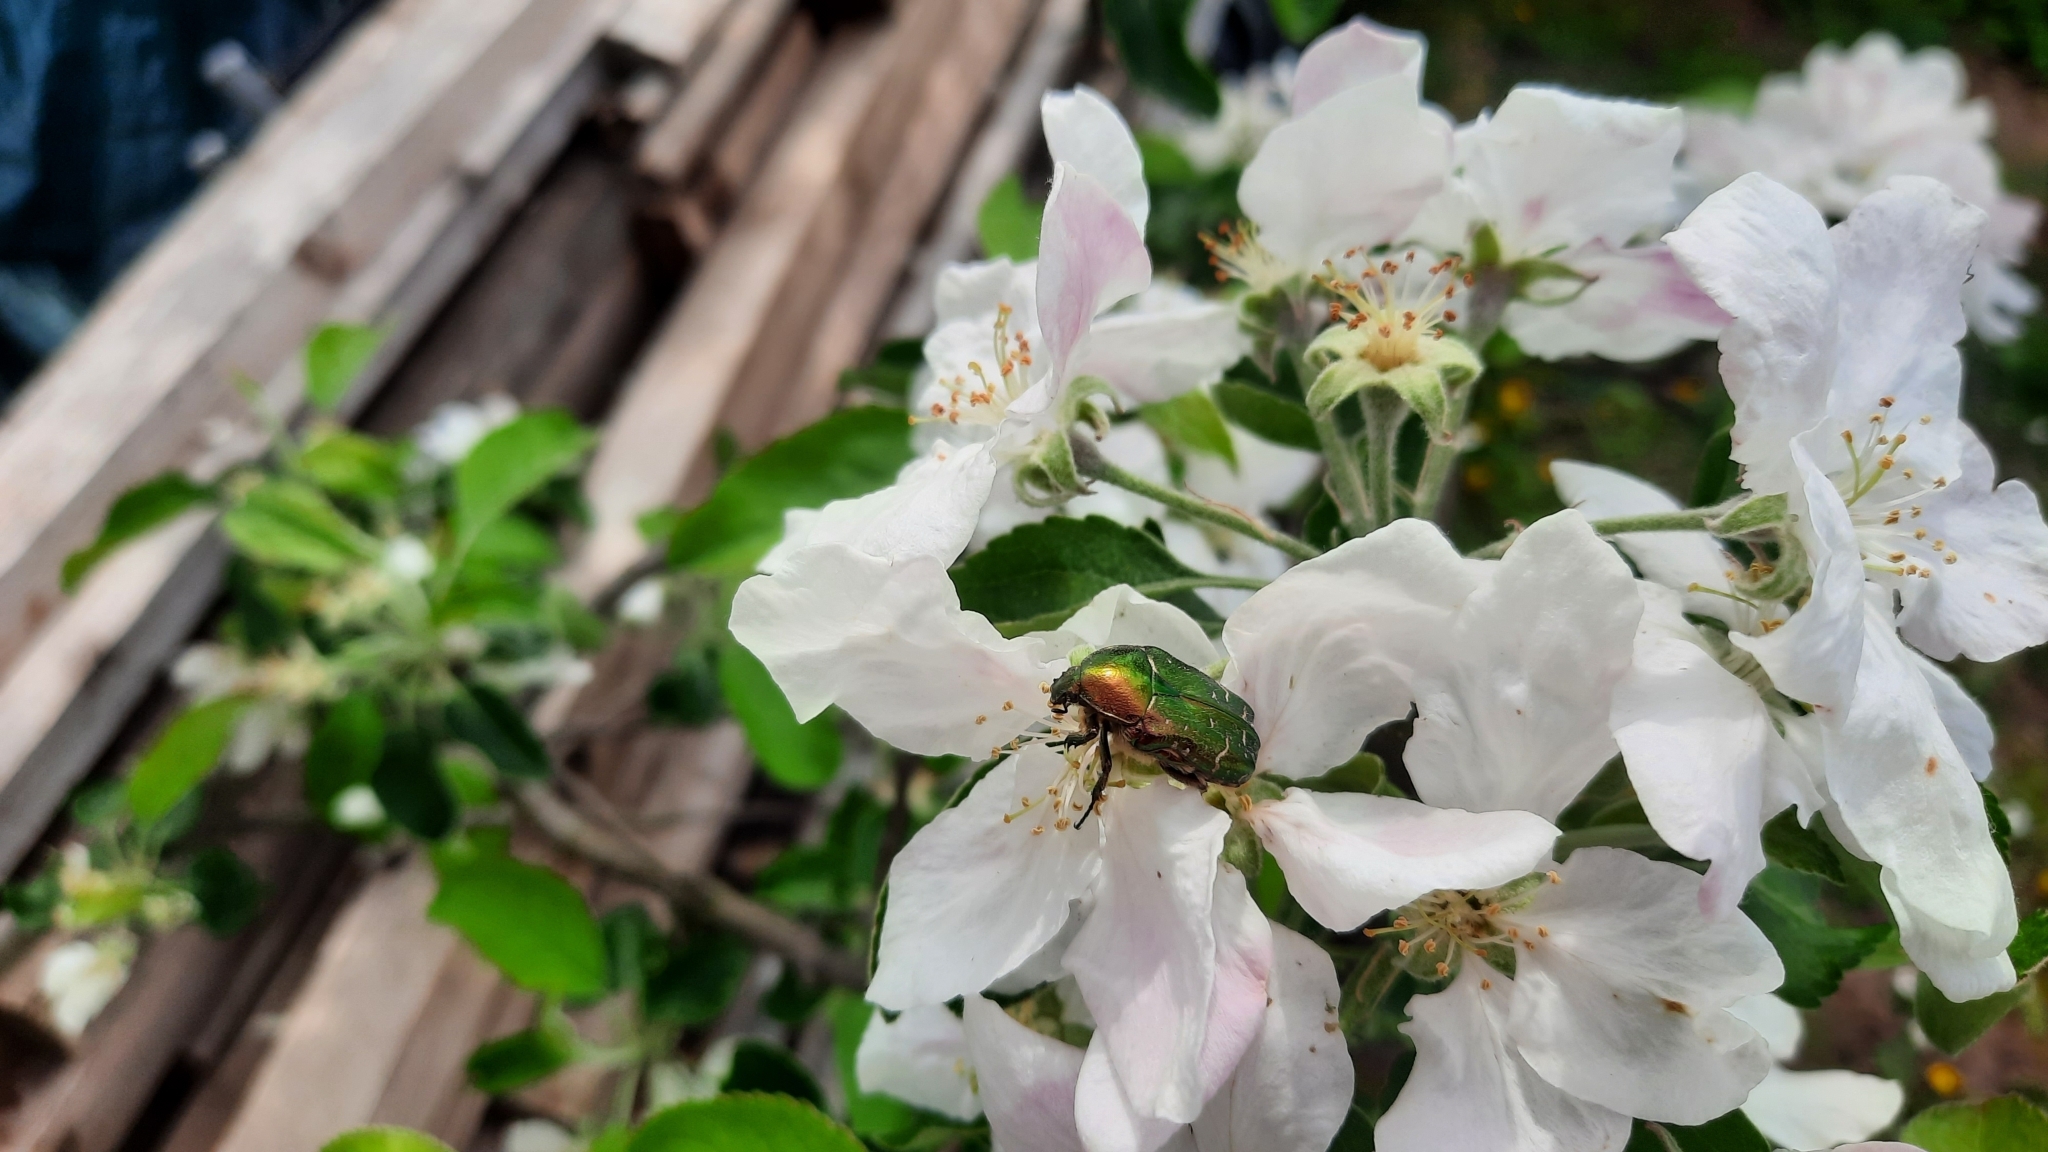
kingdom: Animalia
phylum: Arthropoda
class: Insecta
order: Coleoptera
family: Scarabaeidae
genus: Cetonia
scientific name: Cetonia aurata
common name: Rose chafer
